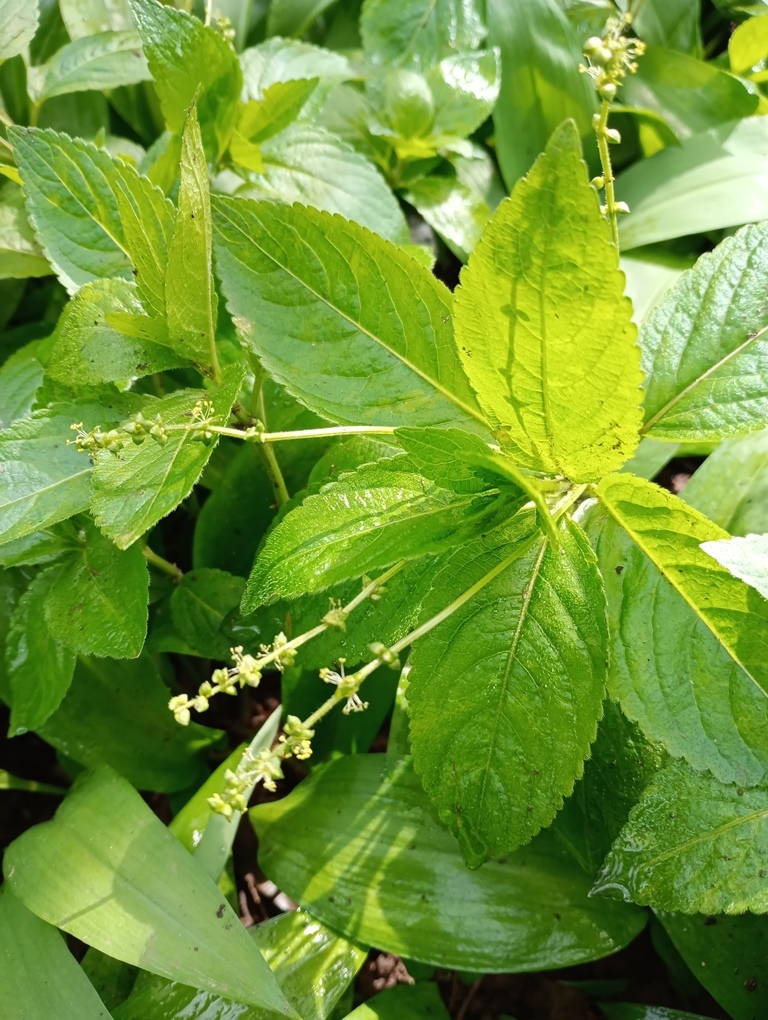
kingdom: Plantae
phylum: Tracheophyta
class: Magnoliopsida
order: Malpighiales
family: Euphorbiaceae
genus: Mercurialis
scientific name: Mercurialis perennis
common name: Dog mercury
